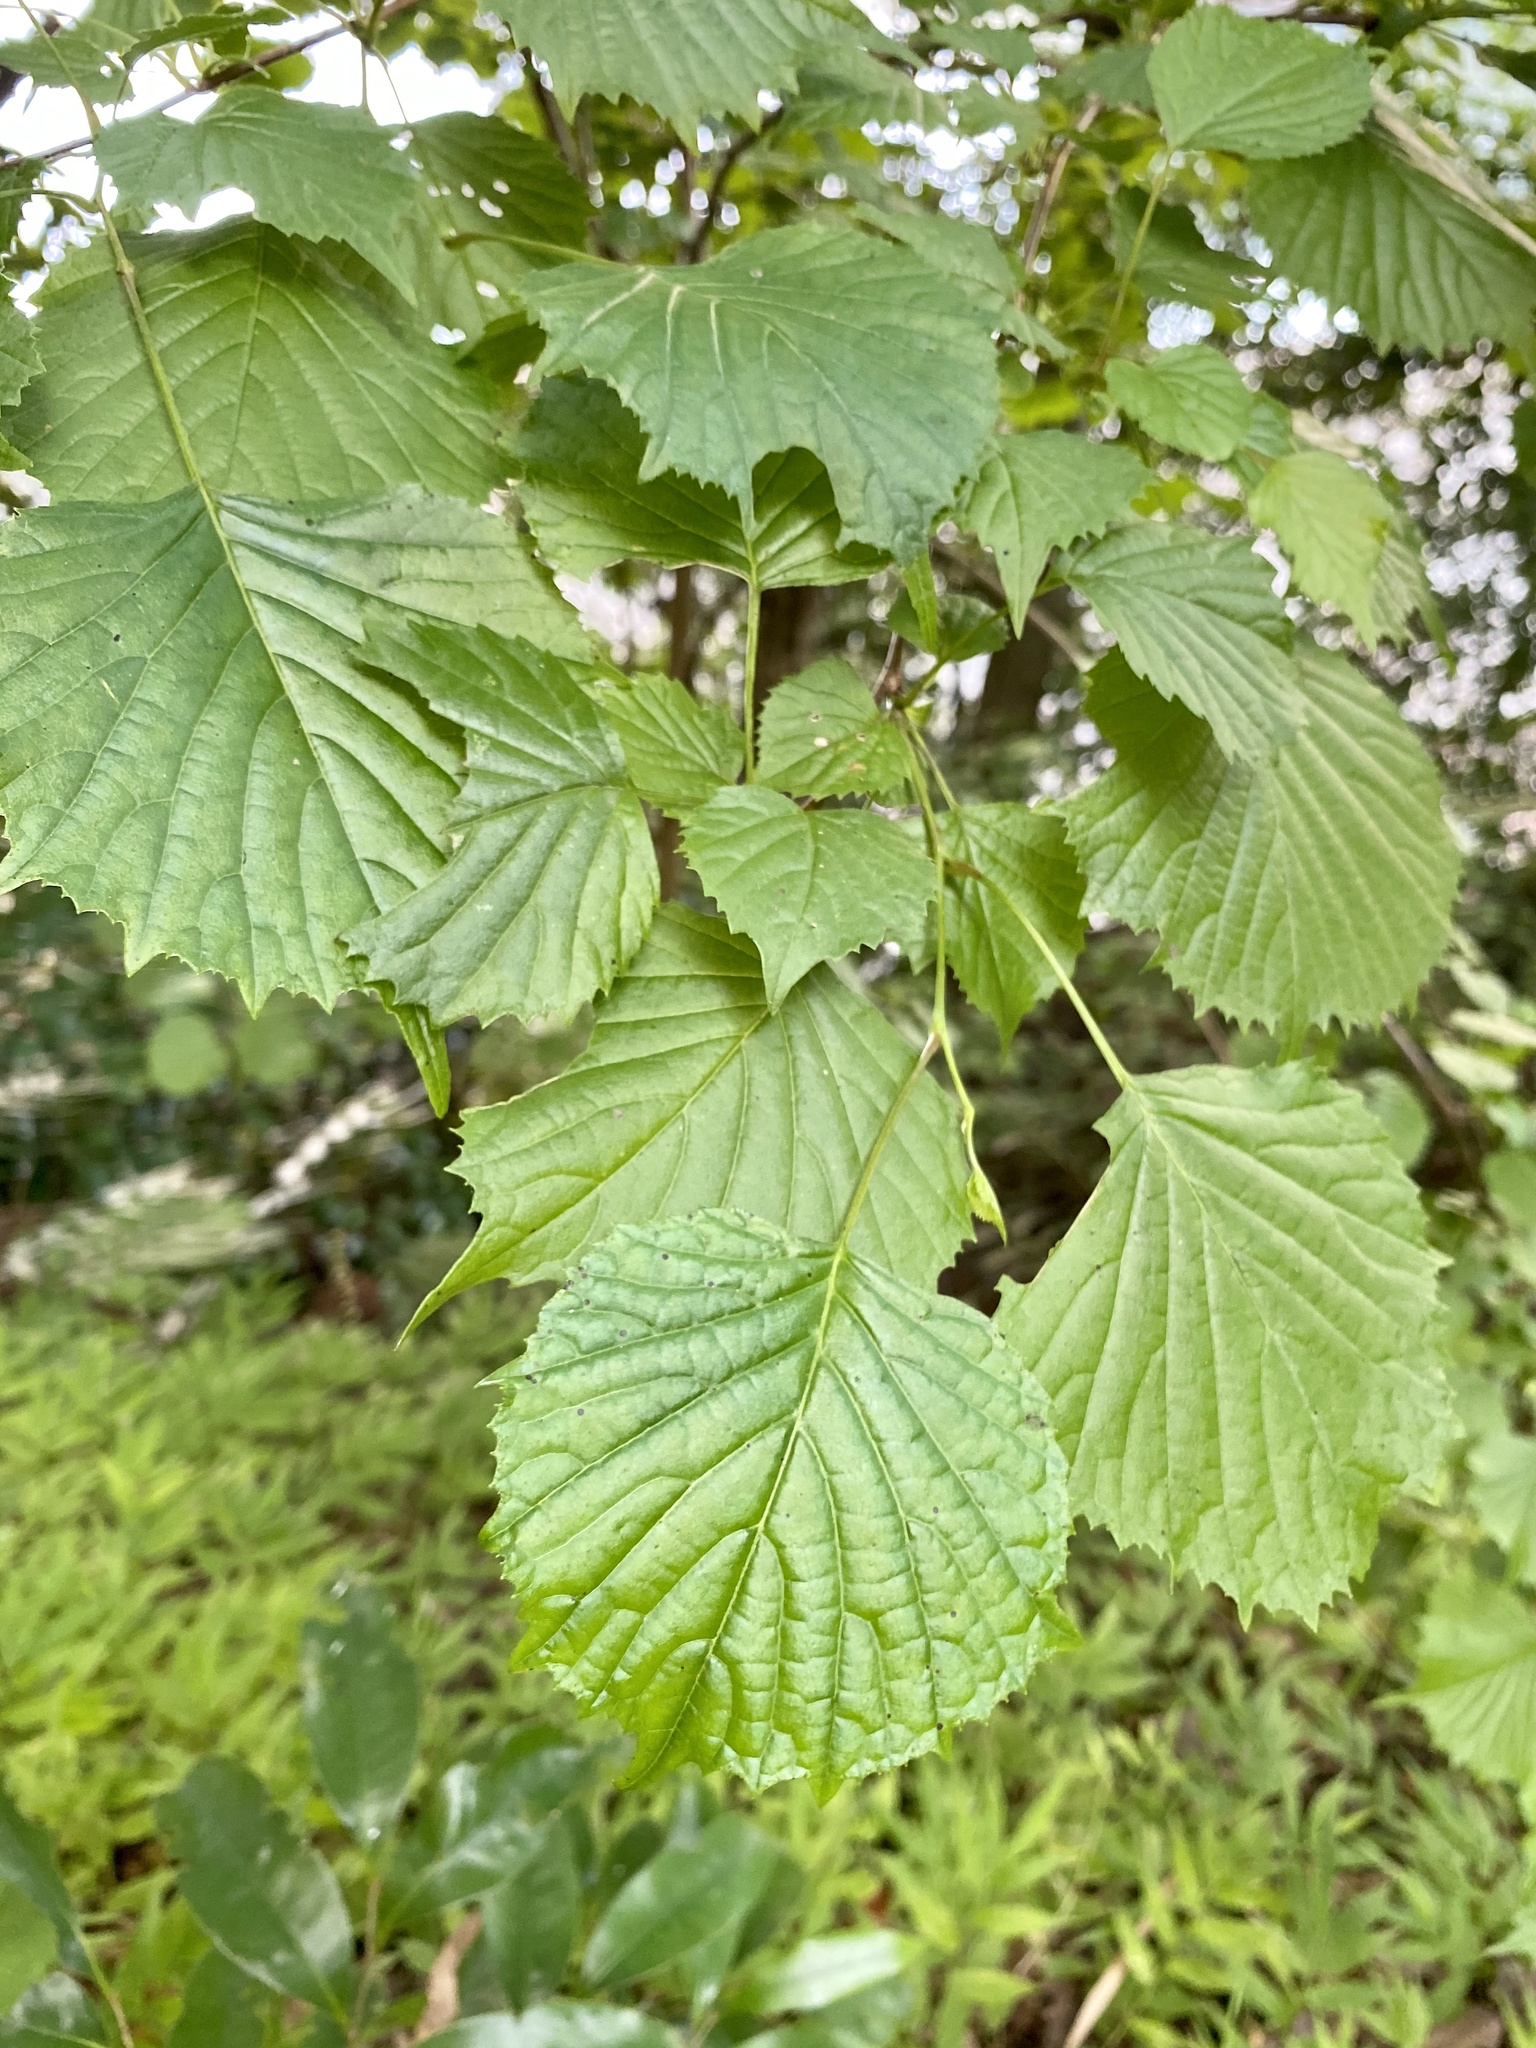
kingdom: Plantae
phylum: Tracheophyta
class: Magnoliopsida
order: Ranunculales
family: Eupteleaceae
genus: Euptelea
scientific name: Euptelea polyandra
